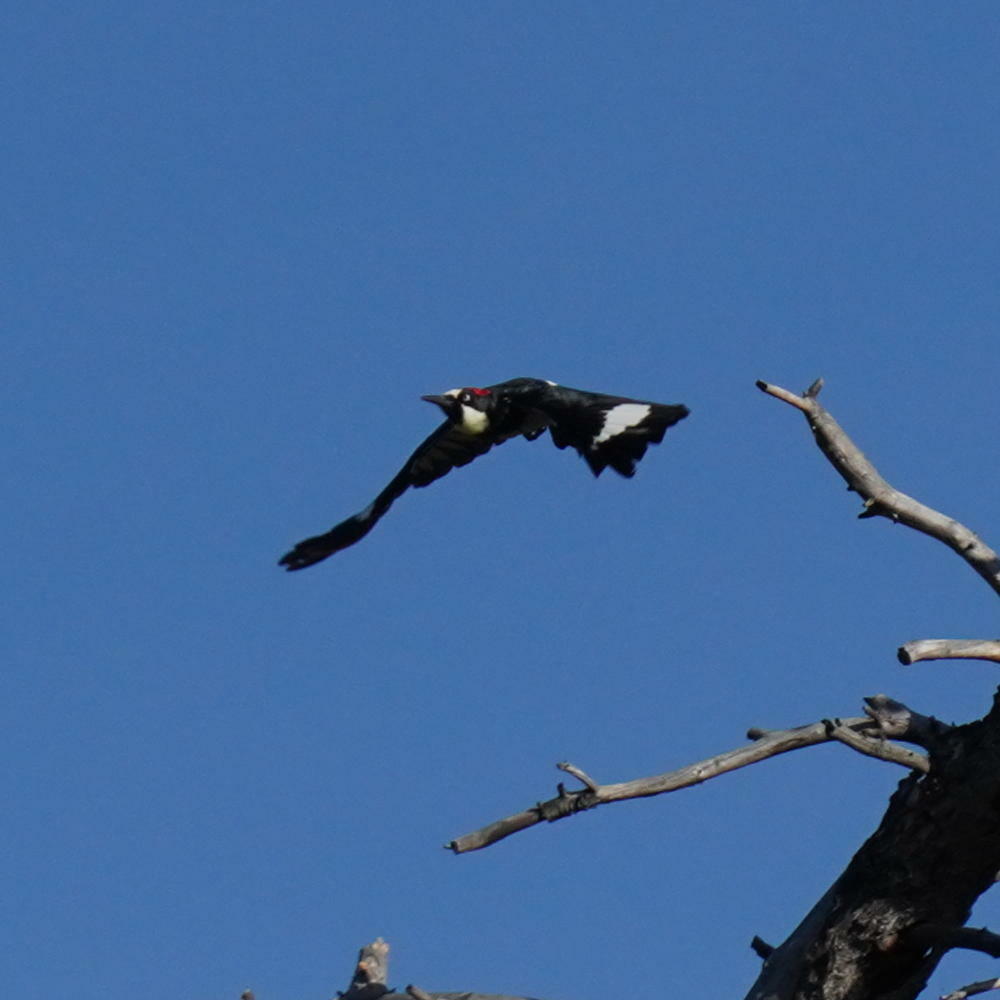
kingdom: Animalia
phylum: Chordata
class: Aves
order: Piciformes
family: Picidae
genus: Melanerpes
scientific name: Melanerpes formicivorus
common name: Acorn woodpecker
